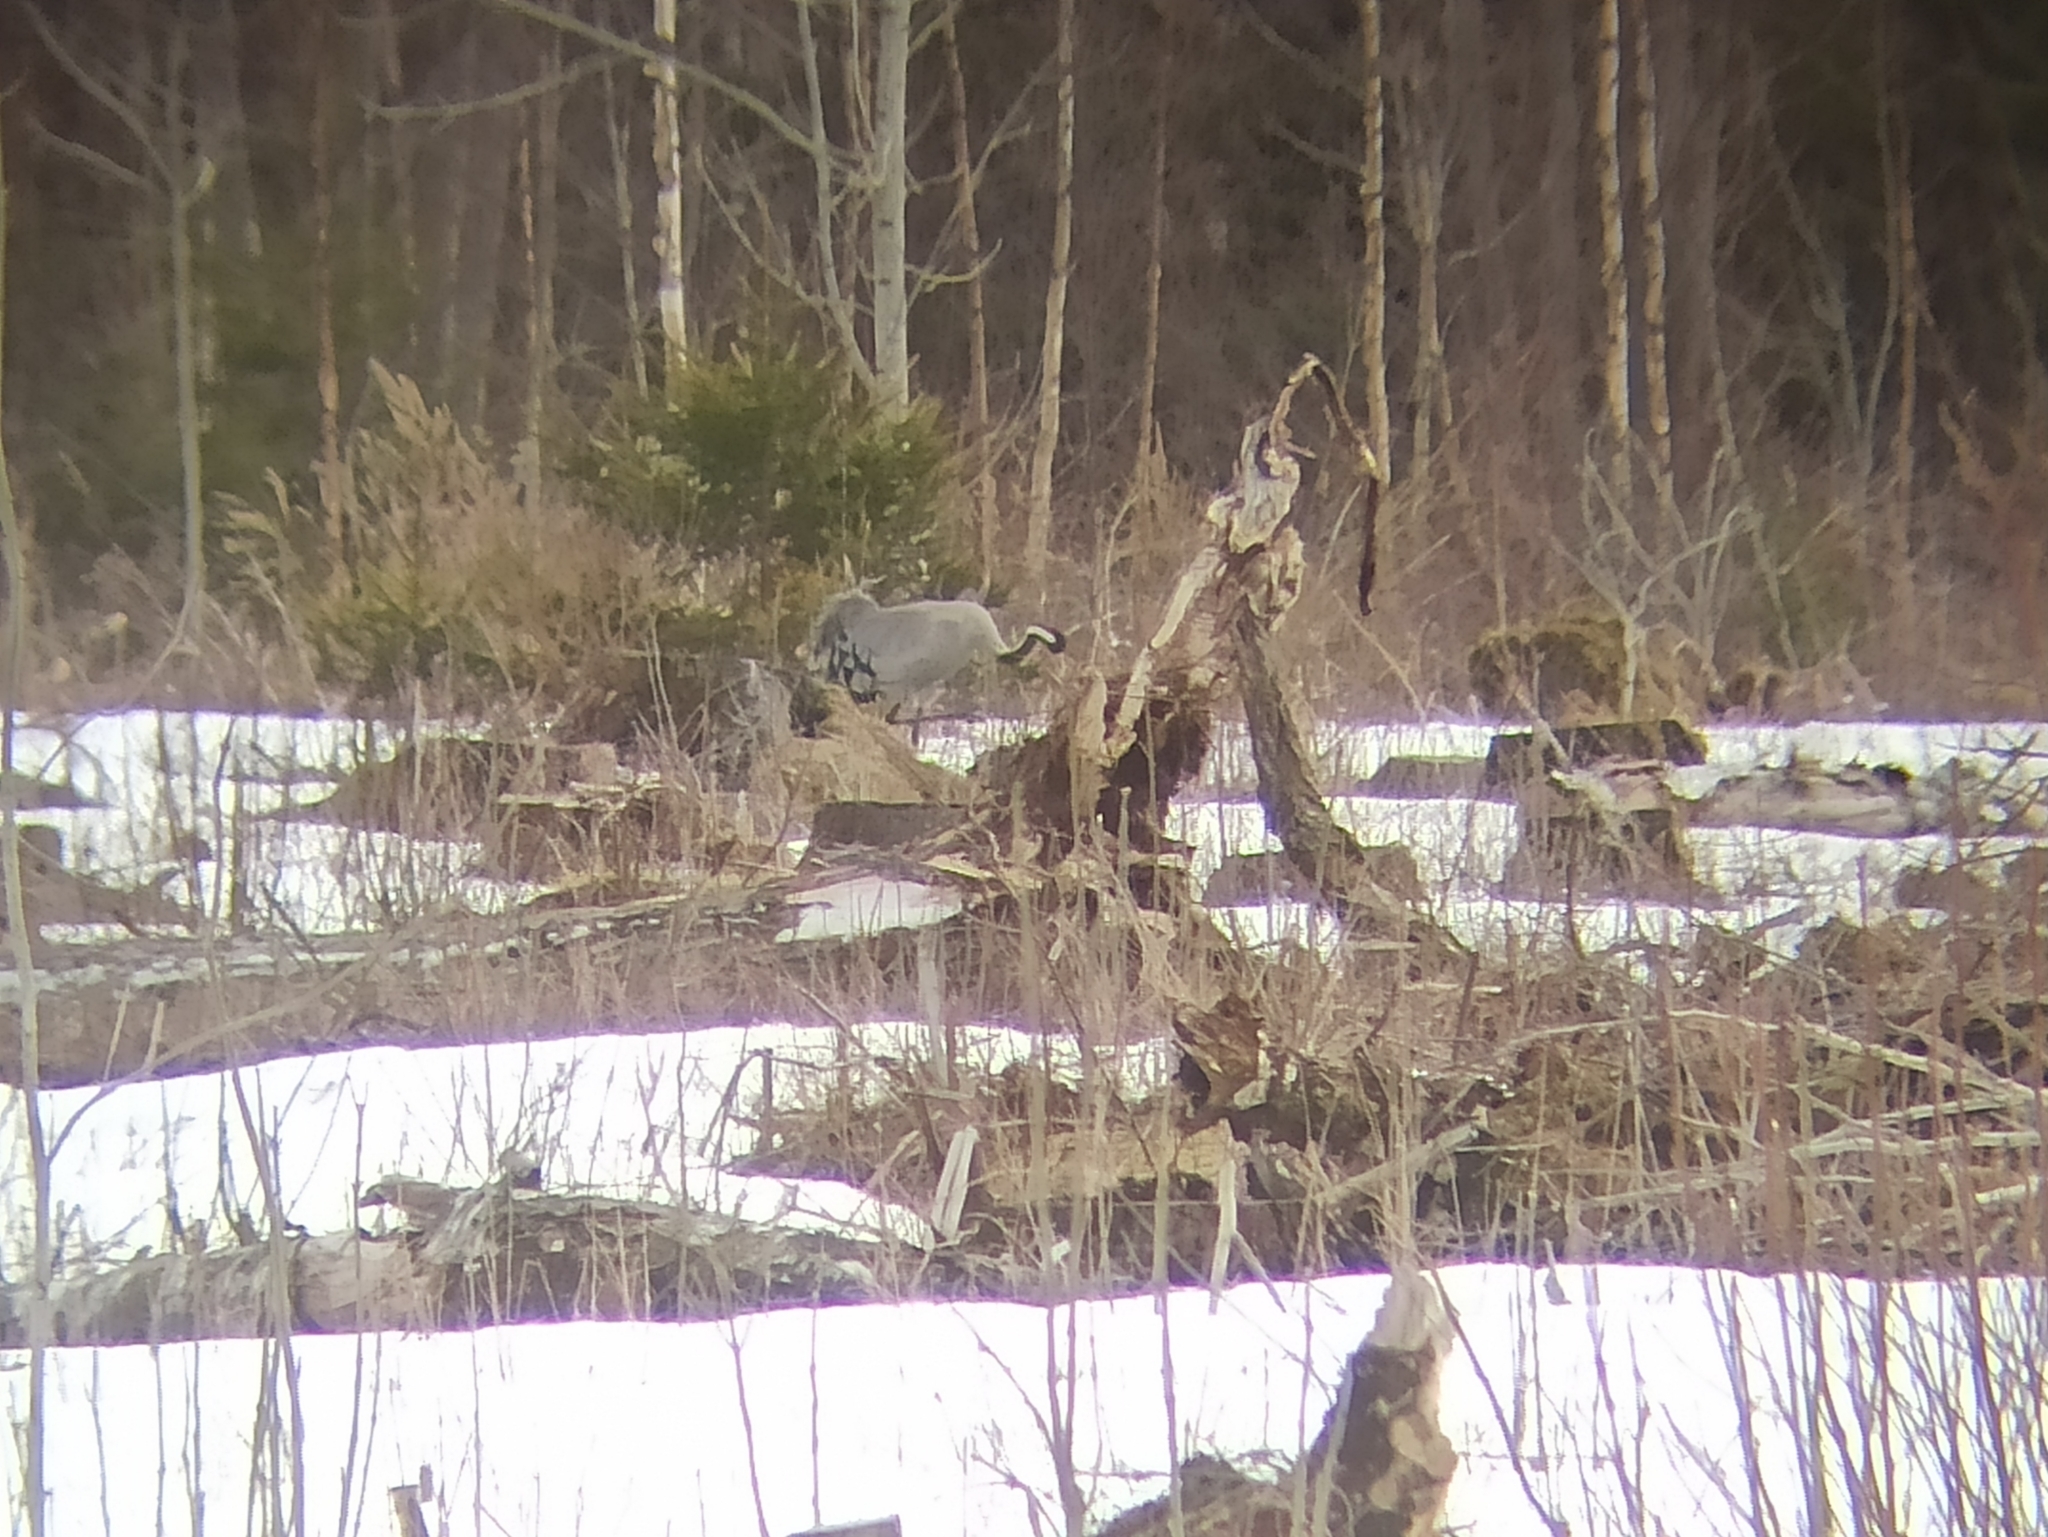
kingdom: Animalia
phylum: Chordata
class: Aves
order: Gruiformes
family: Gruidae
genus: Grus
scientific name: Grus grus
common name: Common crane
